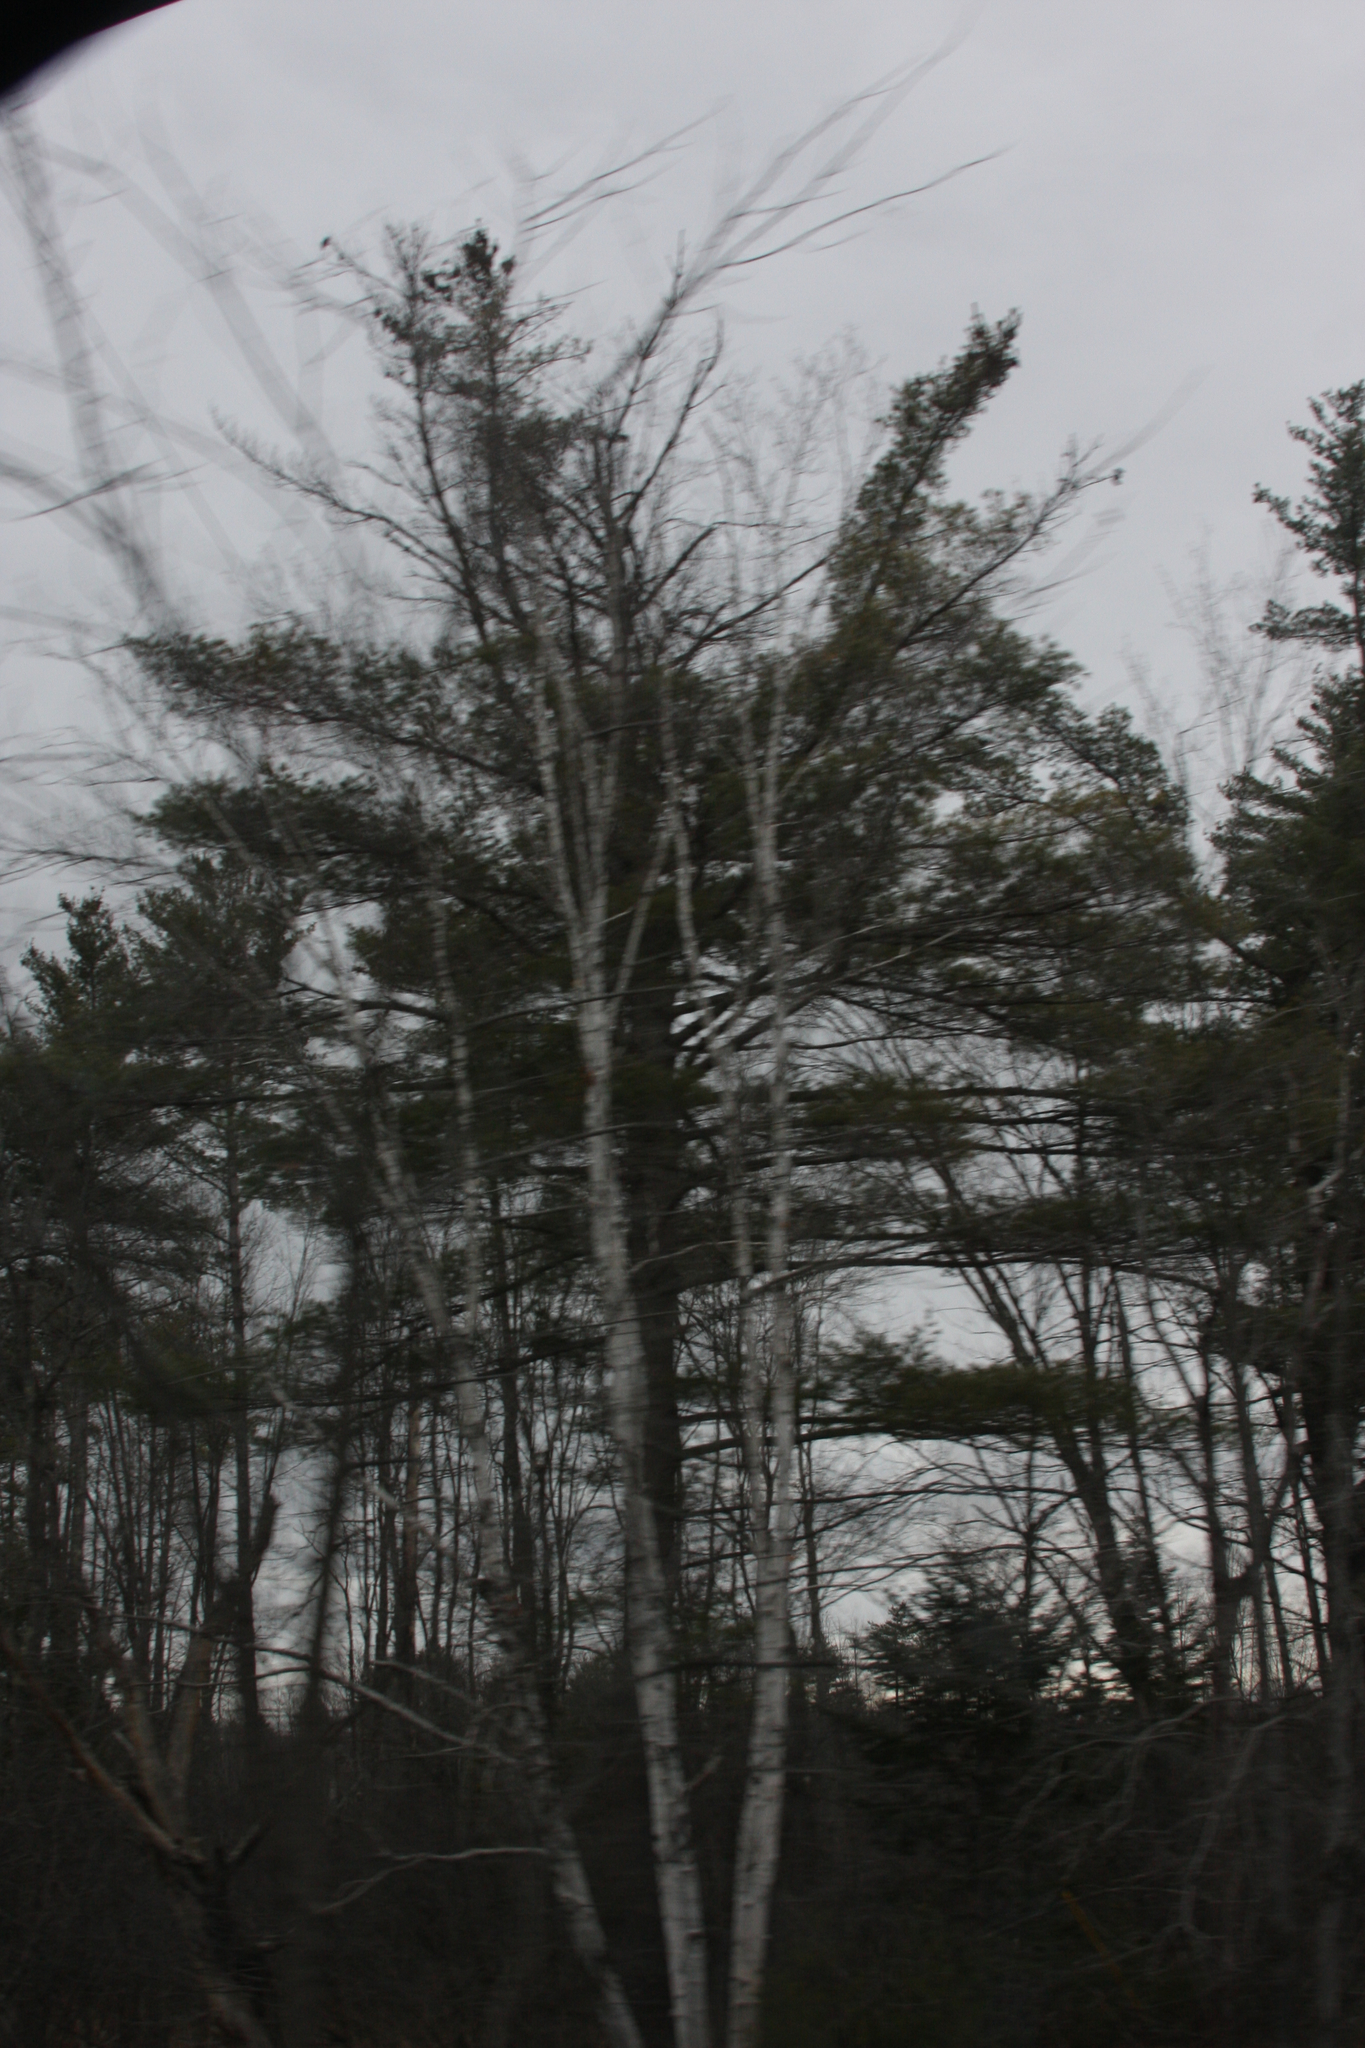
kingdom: Plantae
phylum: Tracheophyta
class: Pinopsida
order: Pinales
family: Pinaceae
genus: Pinus
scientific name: Pinus strobus
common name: Weymouth pine
